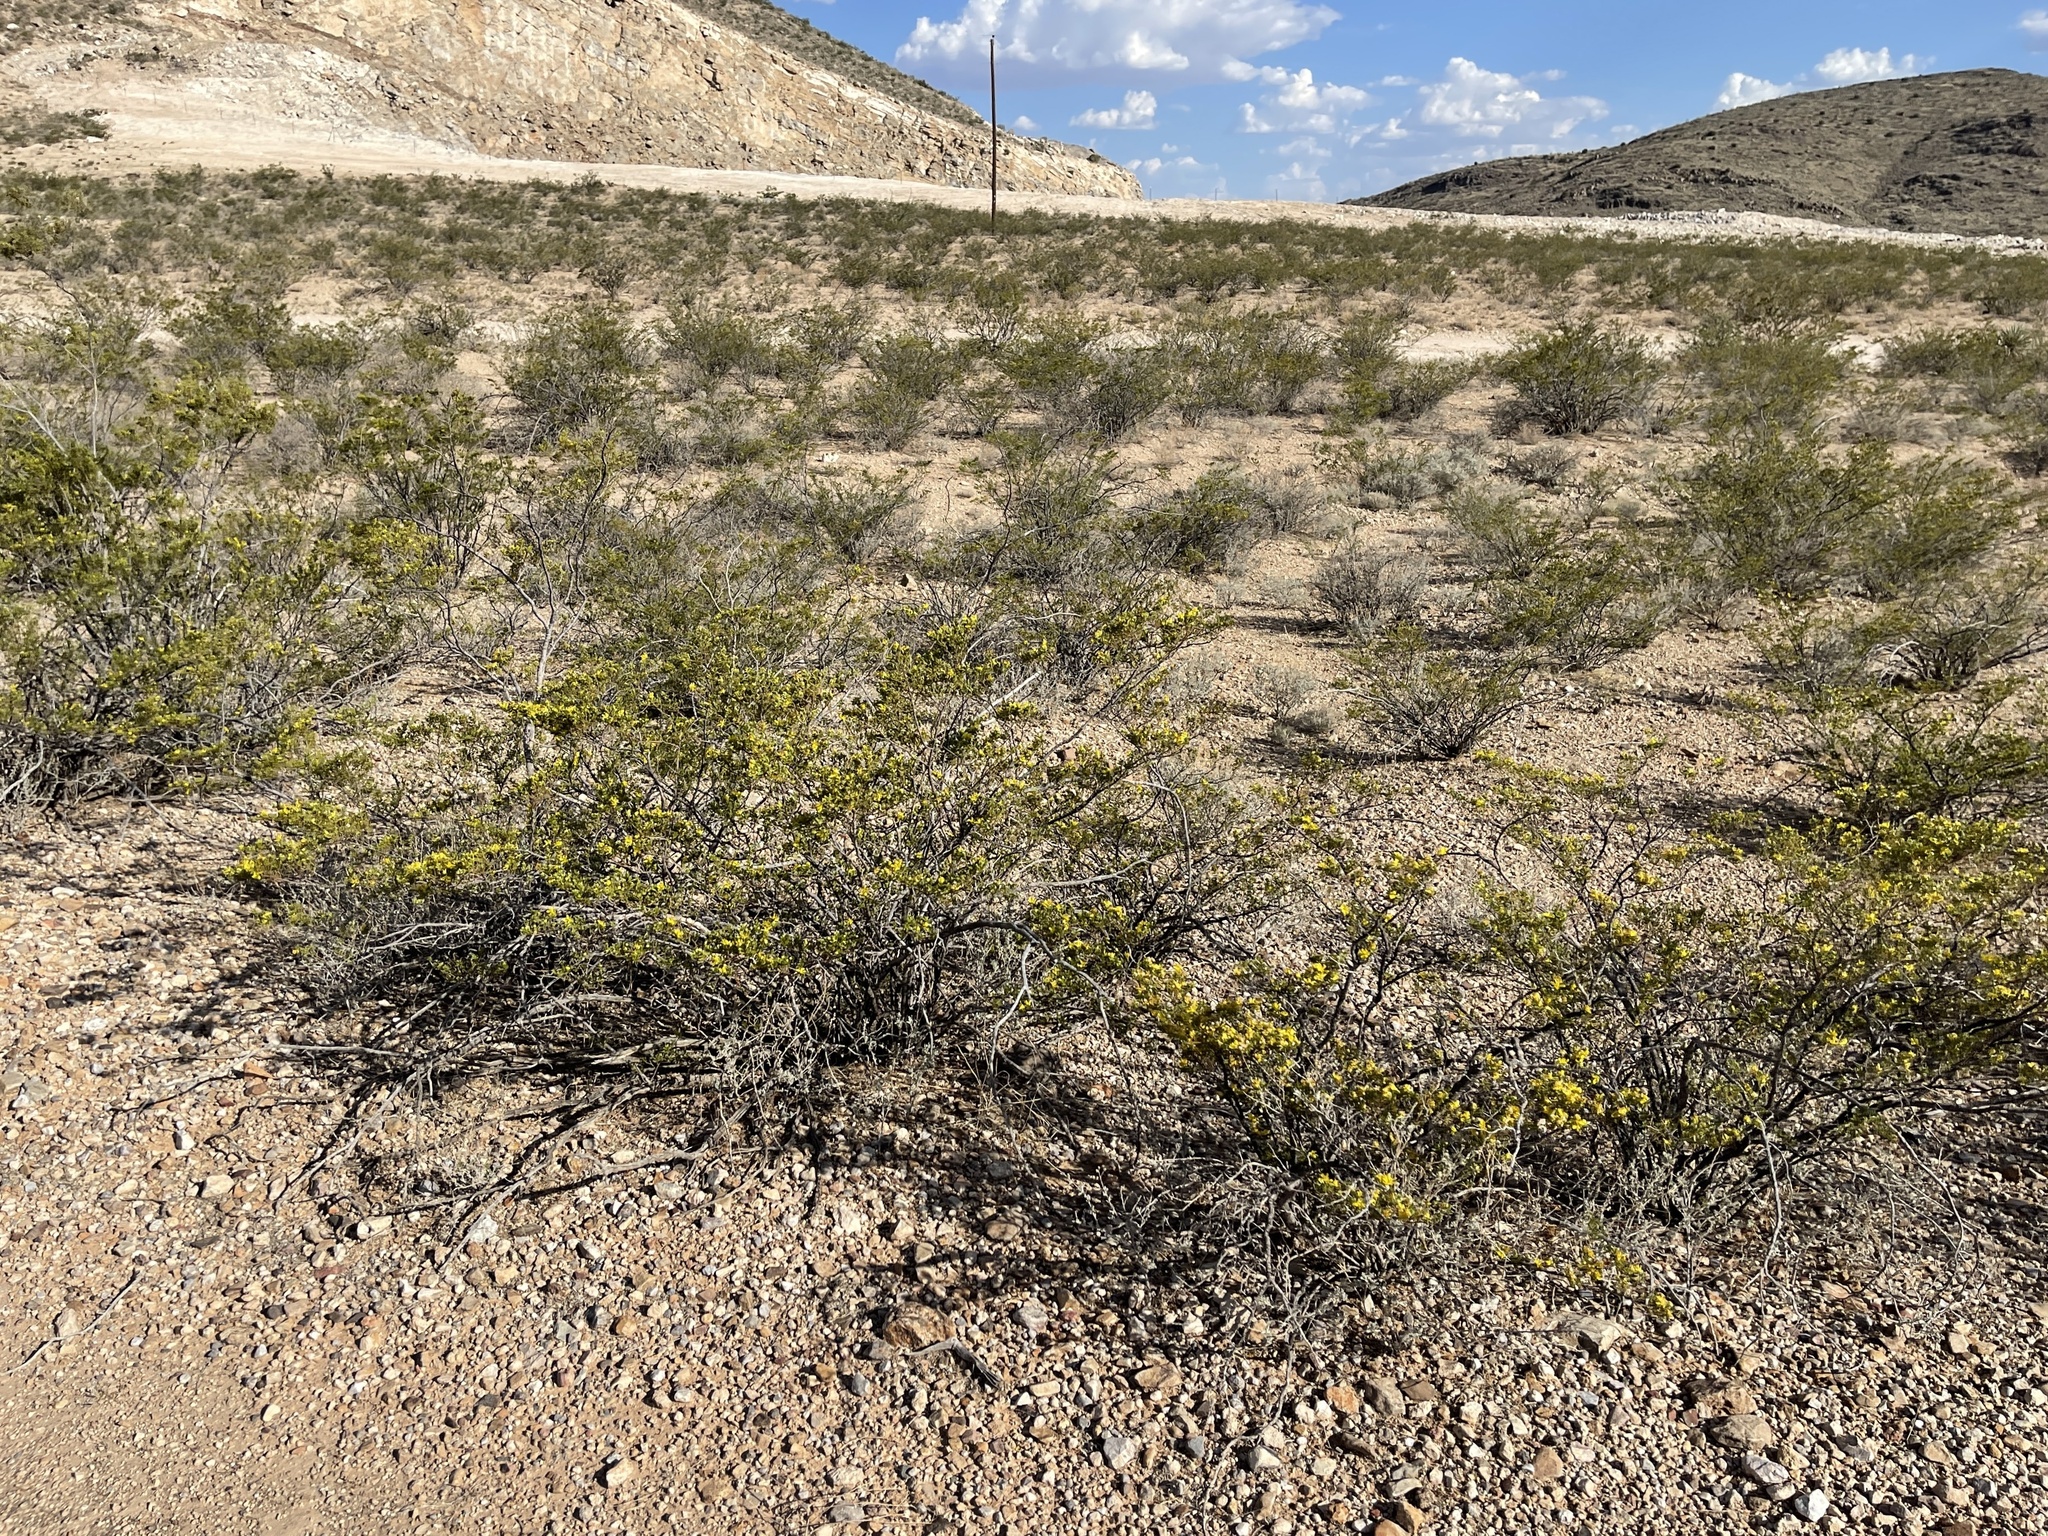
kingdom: Plantae
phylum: Tracheophyta
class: Magnoliopsida
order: Zygophyllales
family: Zygophyllaceae
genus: Larrea
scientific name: Larrea tridentata
